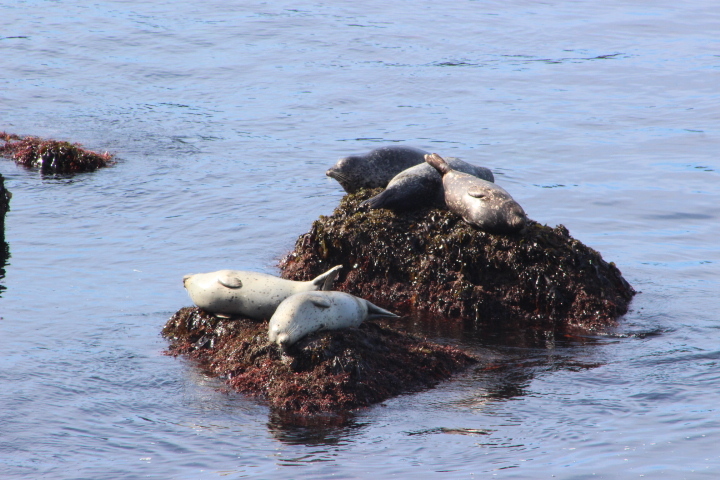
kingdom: Animalia
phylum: Chordata
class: Mammalia
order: Carnivora
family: Phocidae
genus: Phoca
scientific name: Phoca vitulina
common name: Harbor seal
